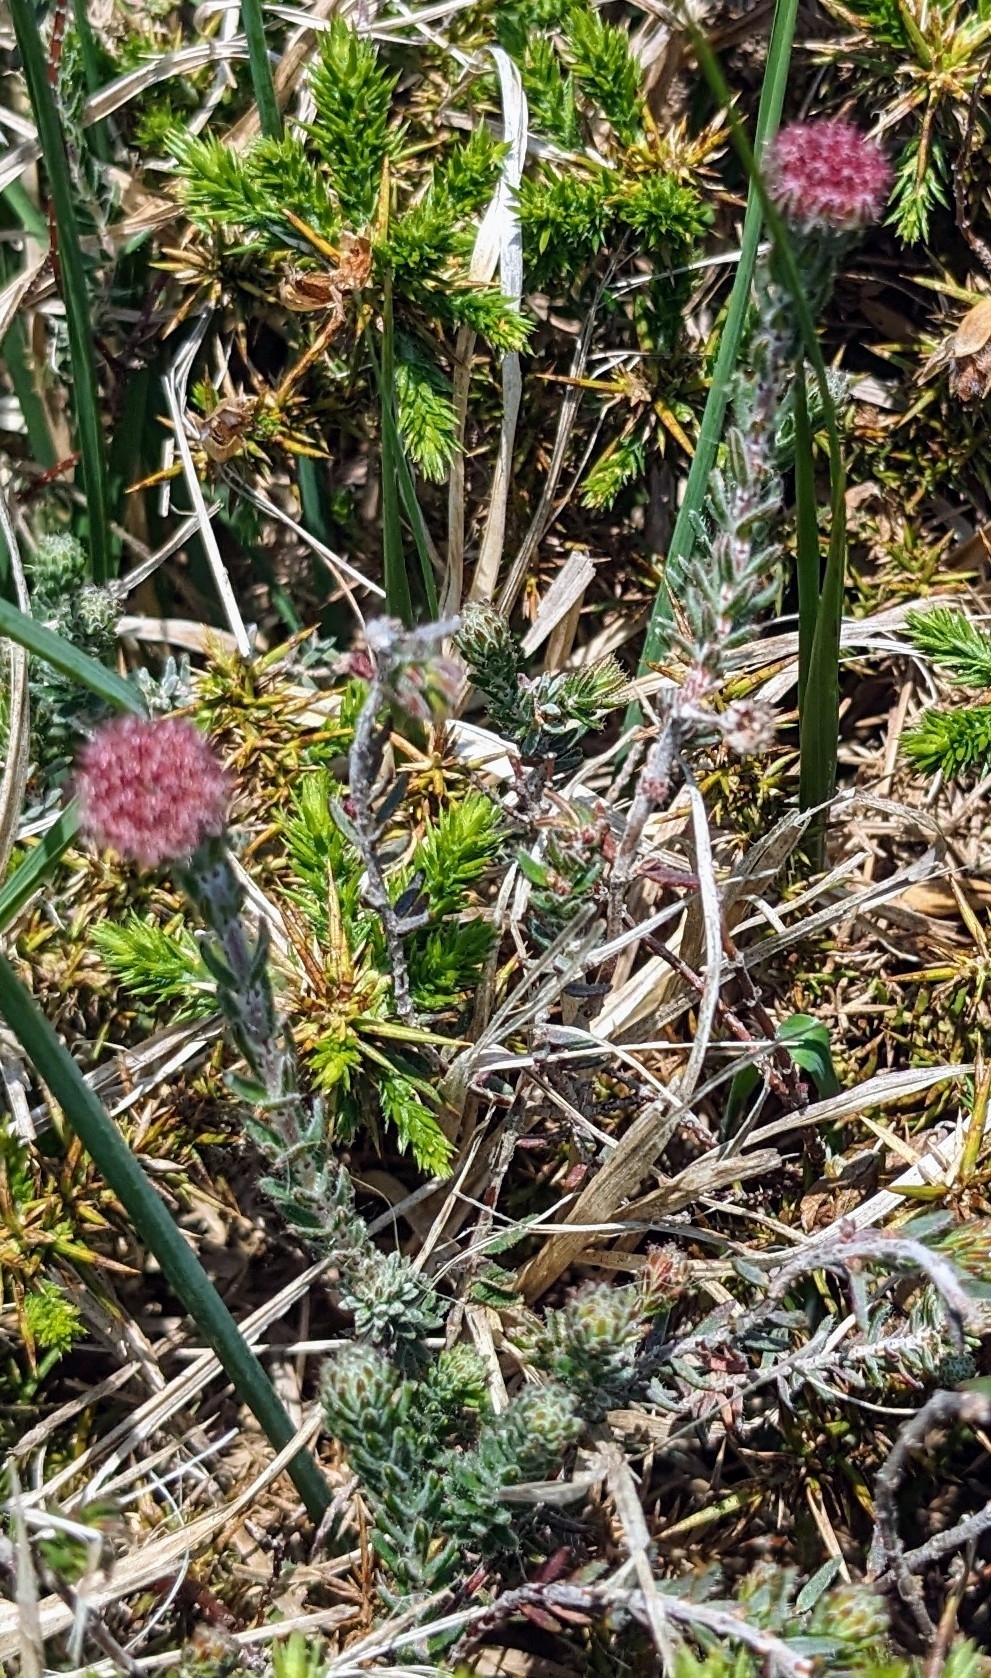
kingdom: Plantae
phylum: Tracheophyta
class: Magnoliopsida
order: Ericales
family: Ericaceae
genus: Erica
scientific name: Erica tetralix
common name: Cross-leaved heath
